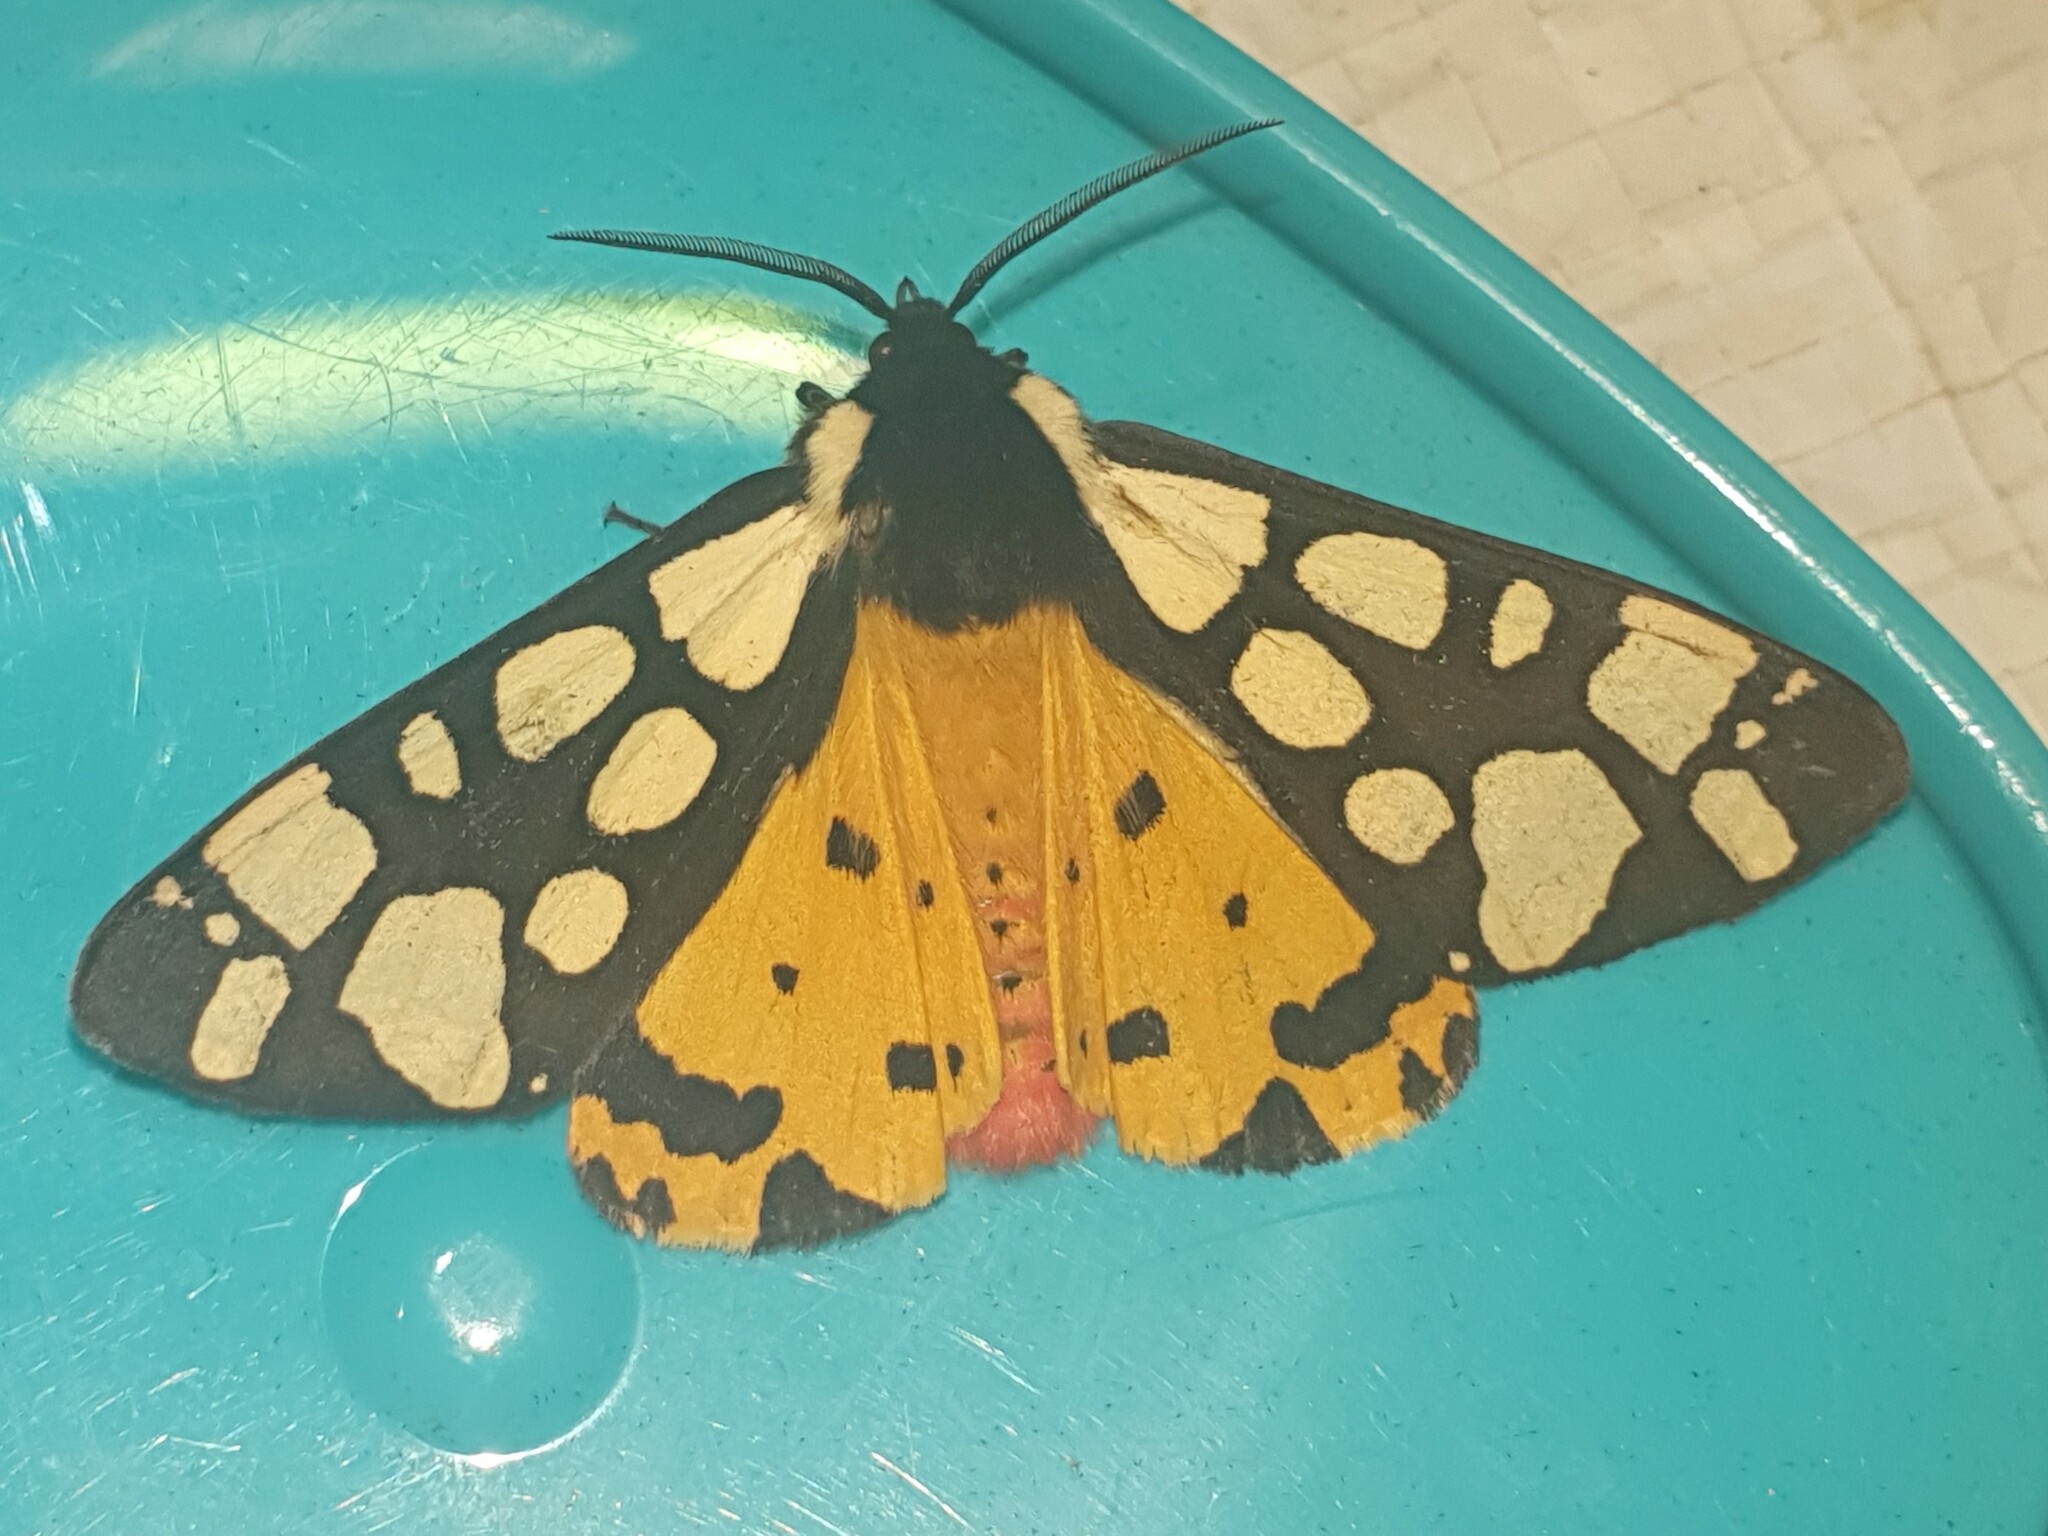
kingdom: Animalia
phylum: Arthropoda
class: Insecta
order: Lepidoptera
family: Erebidae
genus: Epicallia
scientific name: Epicallia villica
